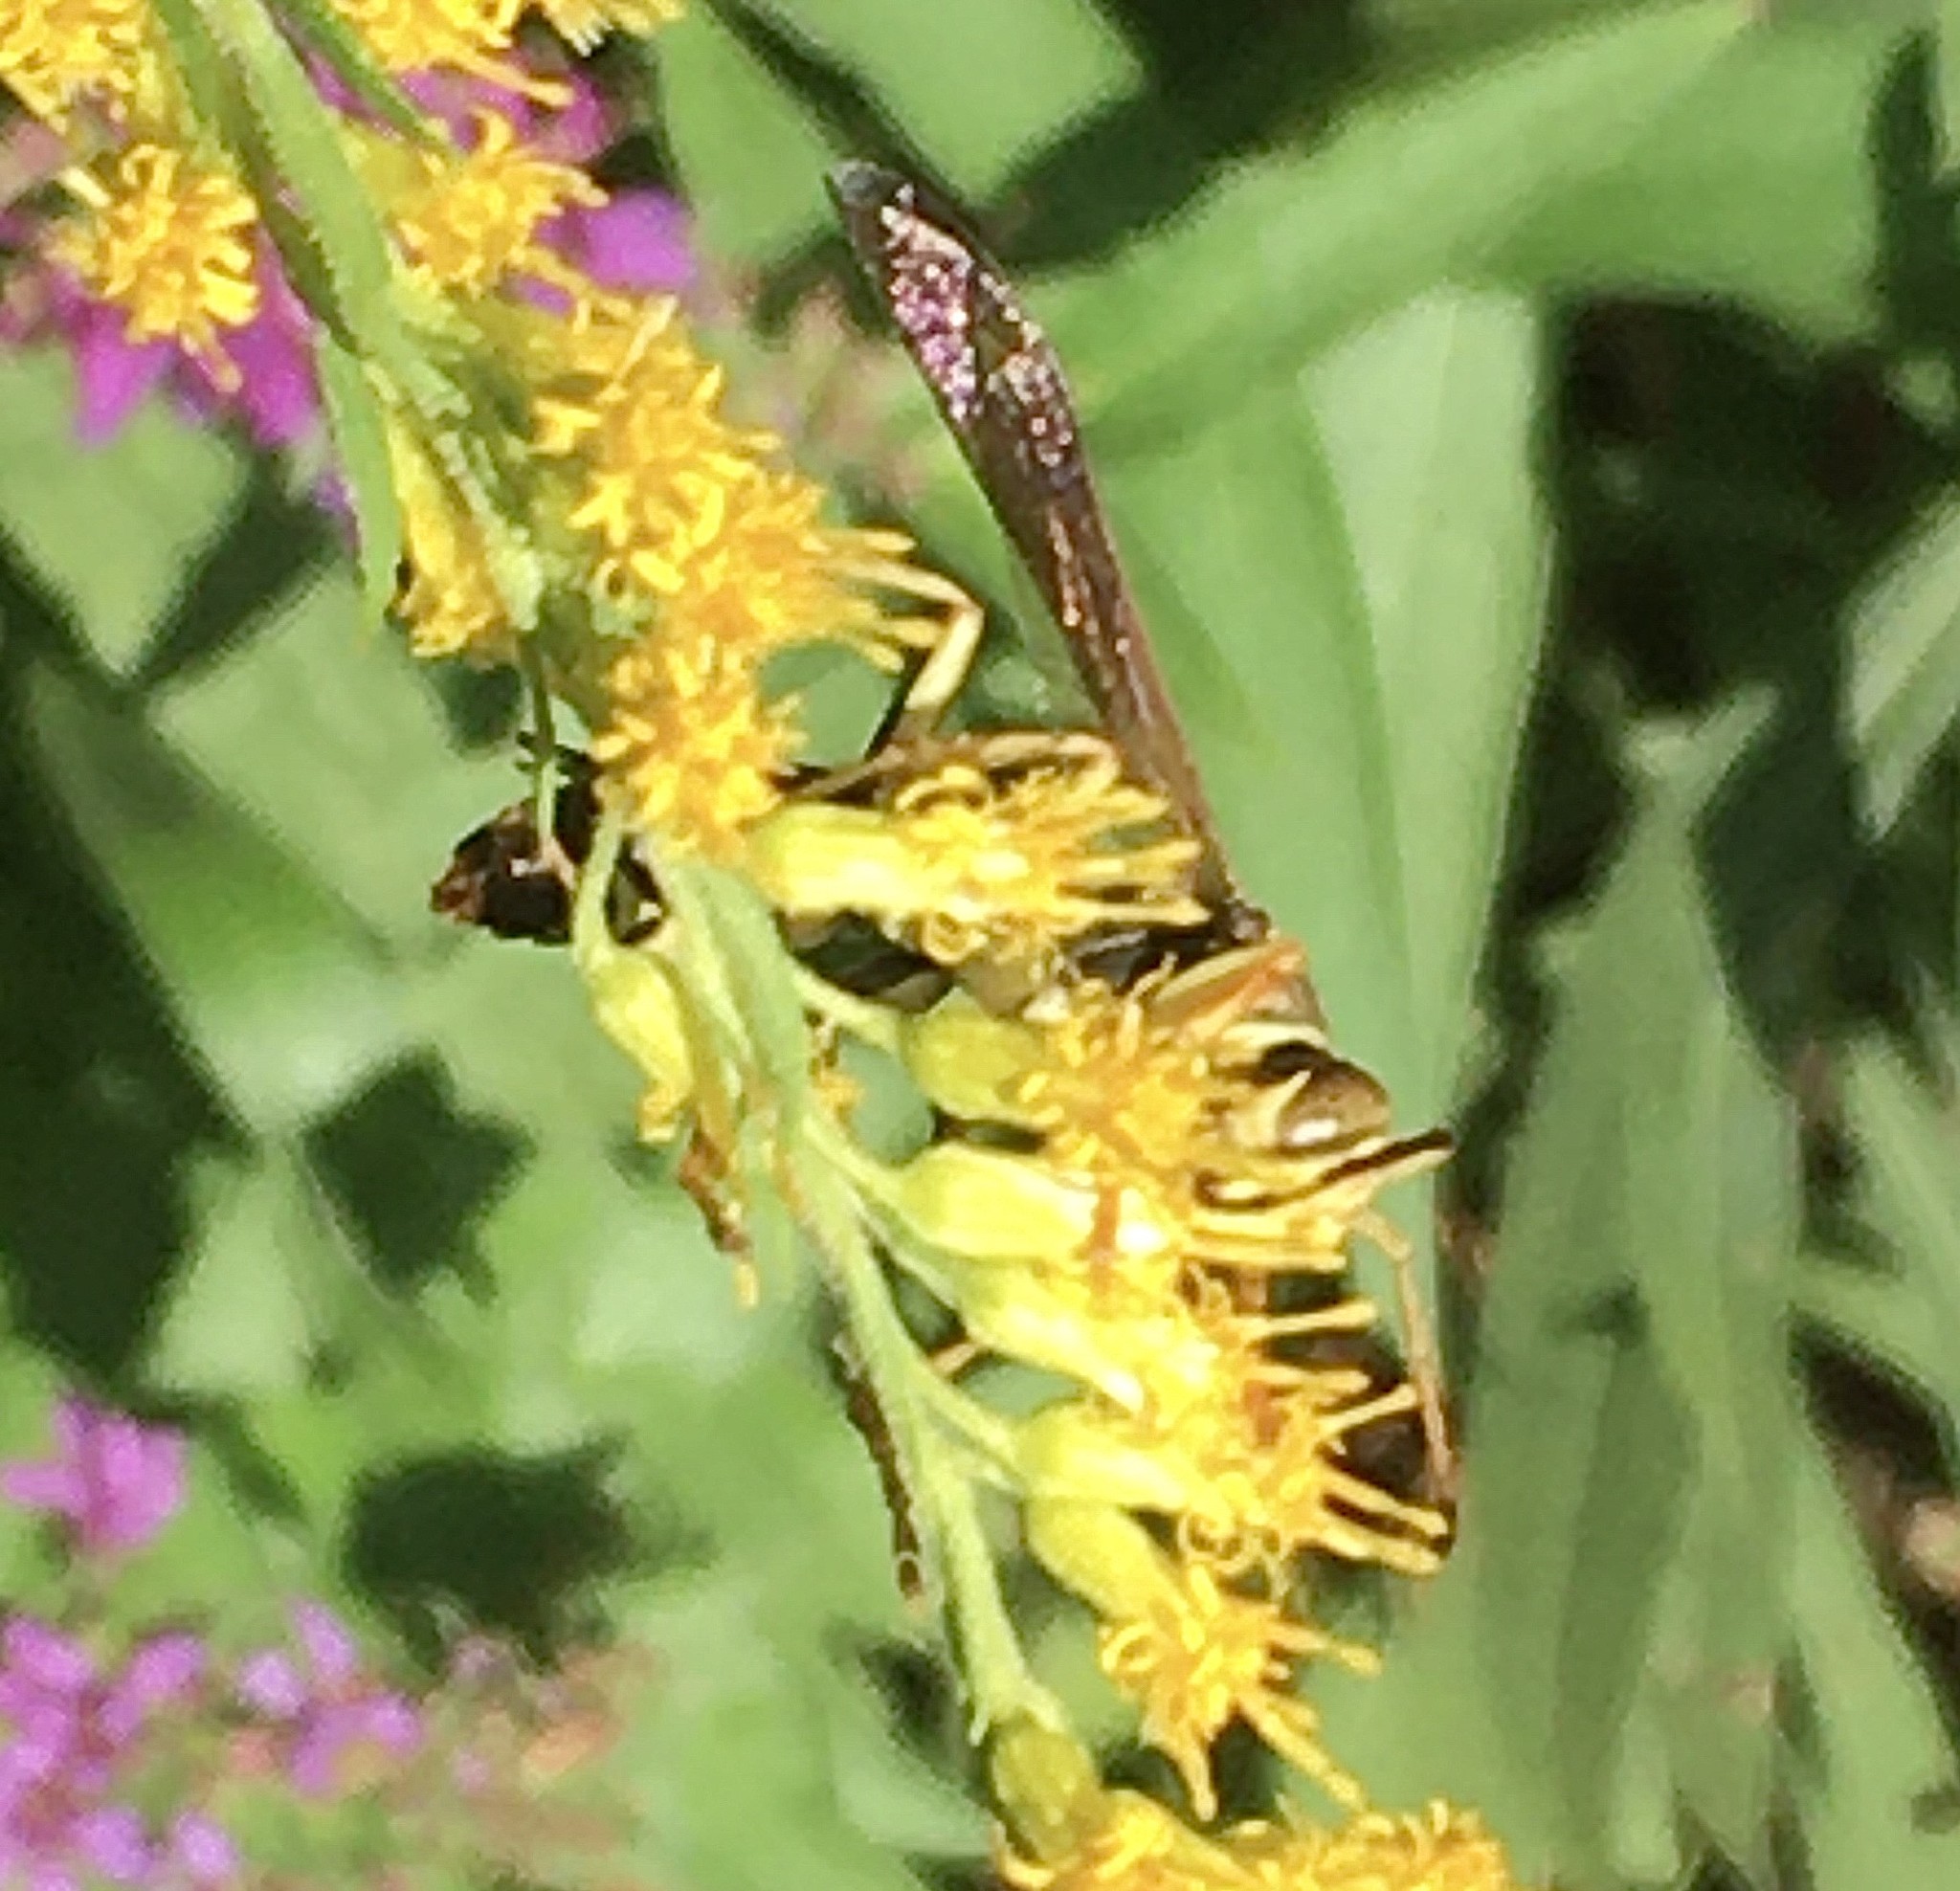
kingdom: Animalia
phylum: Arthropoda
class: Insecta
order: Hymenoptera
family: Eumenidae
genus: Polistes
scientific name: Polistes fuscatus
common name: Dark paper wasp
